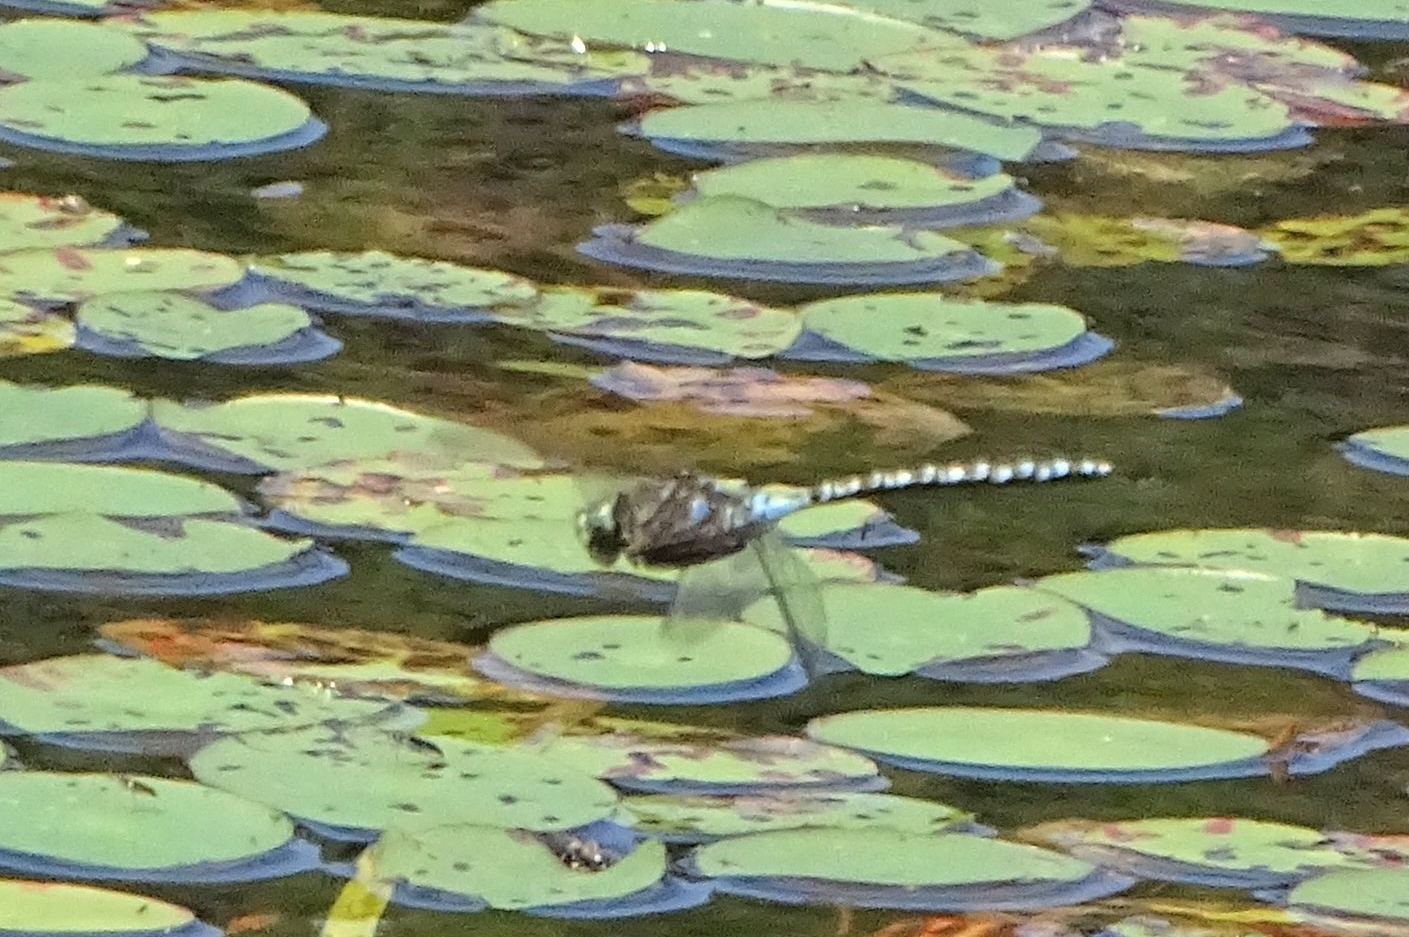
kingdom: Animalia
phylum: Arthropoda
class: Insecta
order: Odonata
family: Aeshnidae
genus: Aeshna
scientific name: Aeshna eremita
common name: Lake darner
